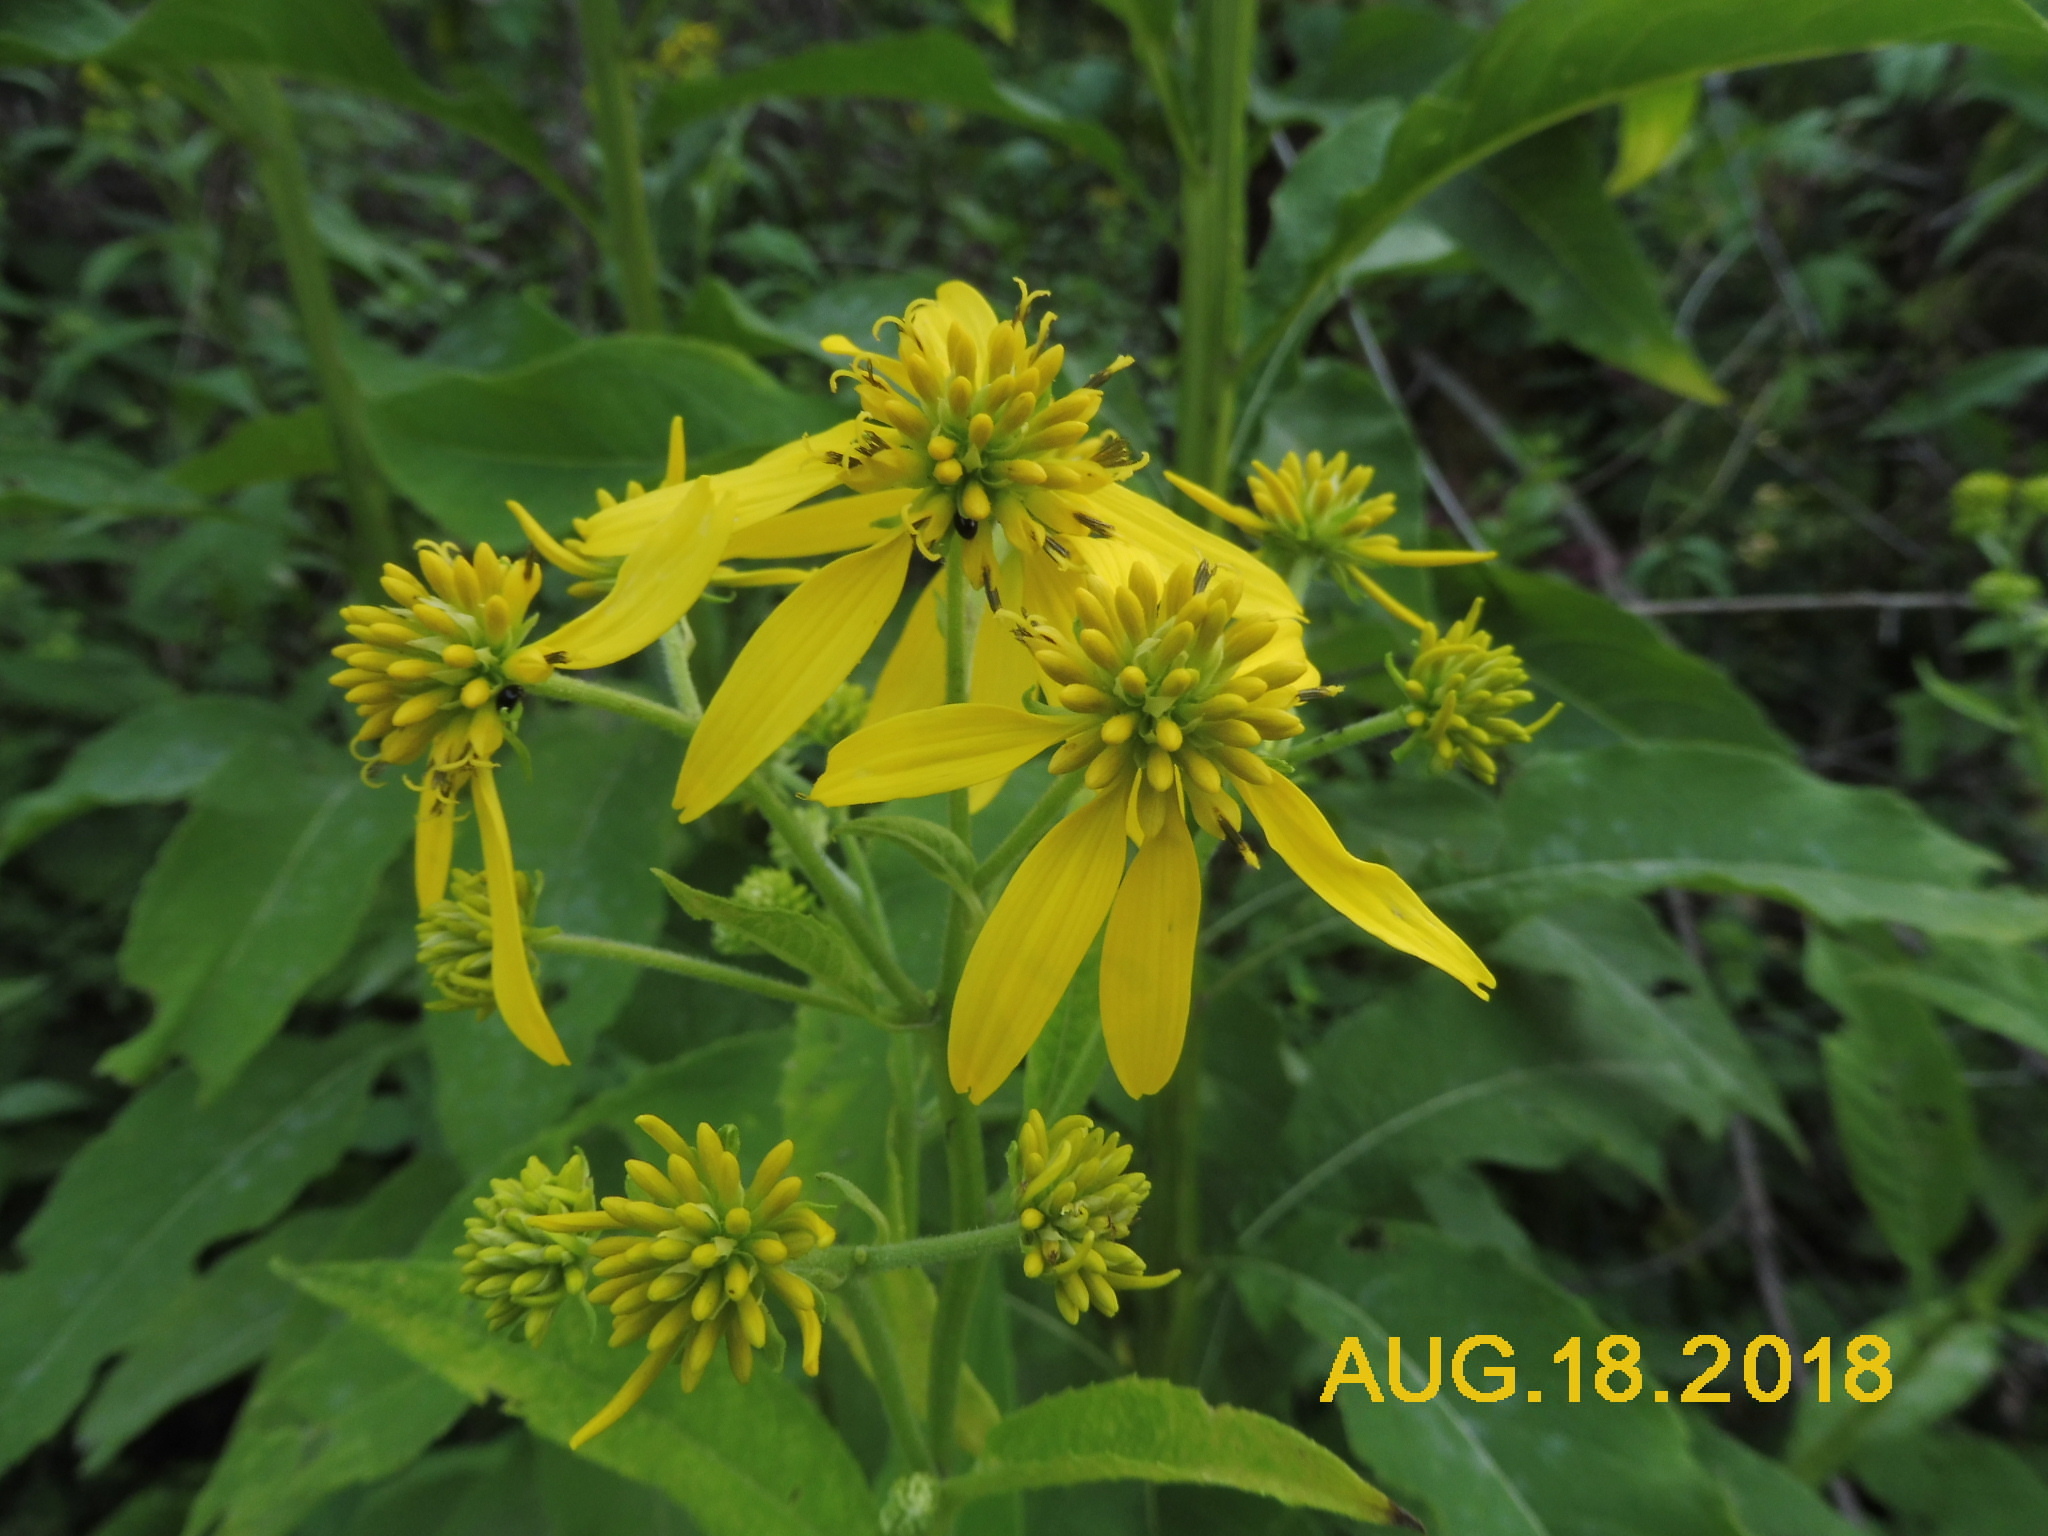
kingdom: Plantae
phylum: Tracheophyta
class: Magnoliopsida
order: Asterales
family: Asteraceae
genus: Verbesina
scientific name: Verbesina alternifolia
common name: Wingstem
